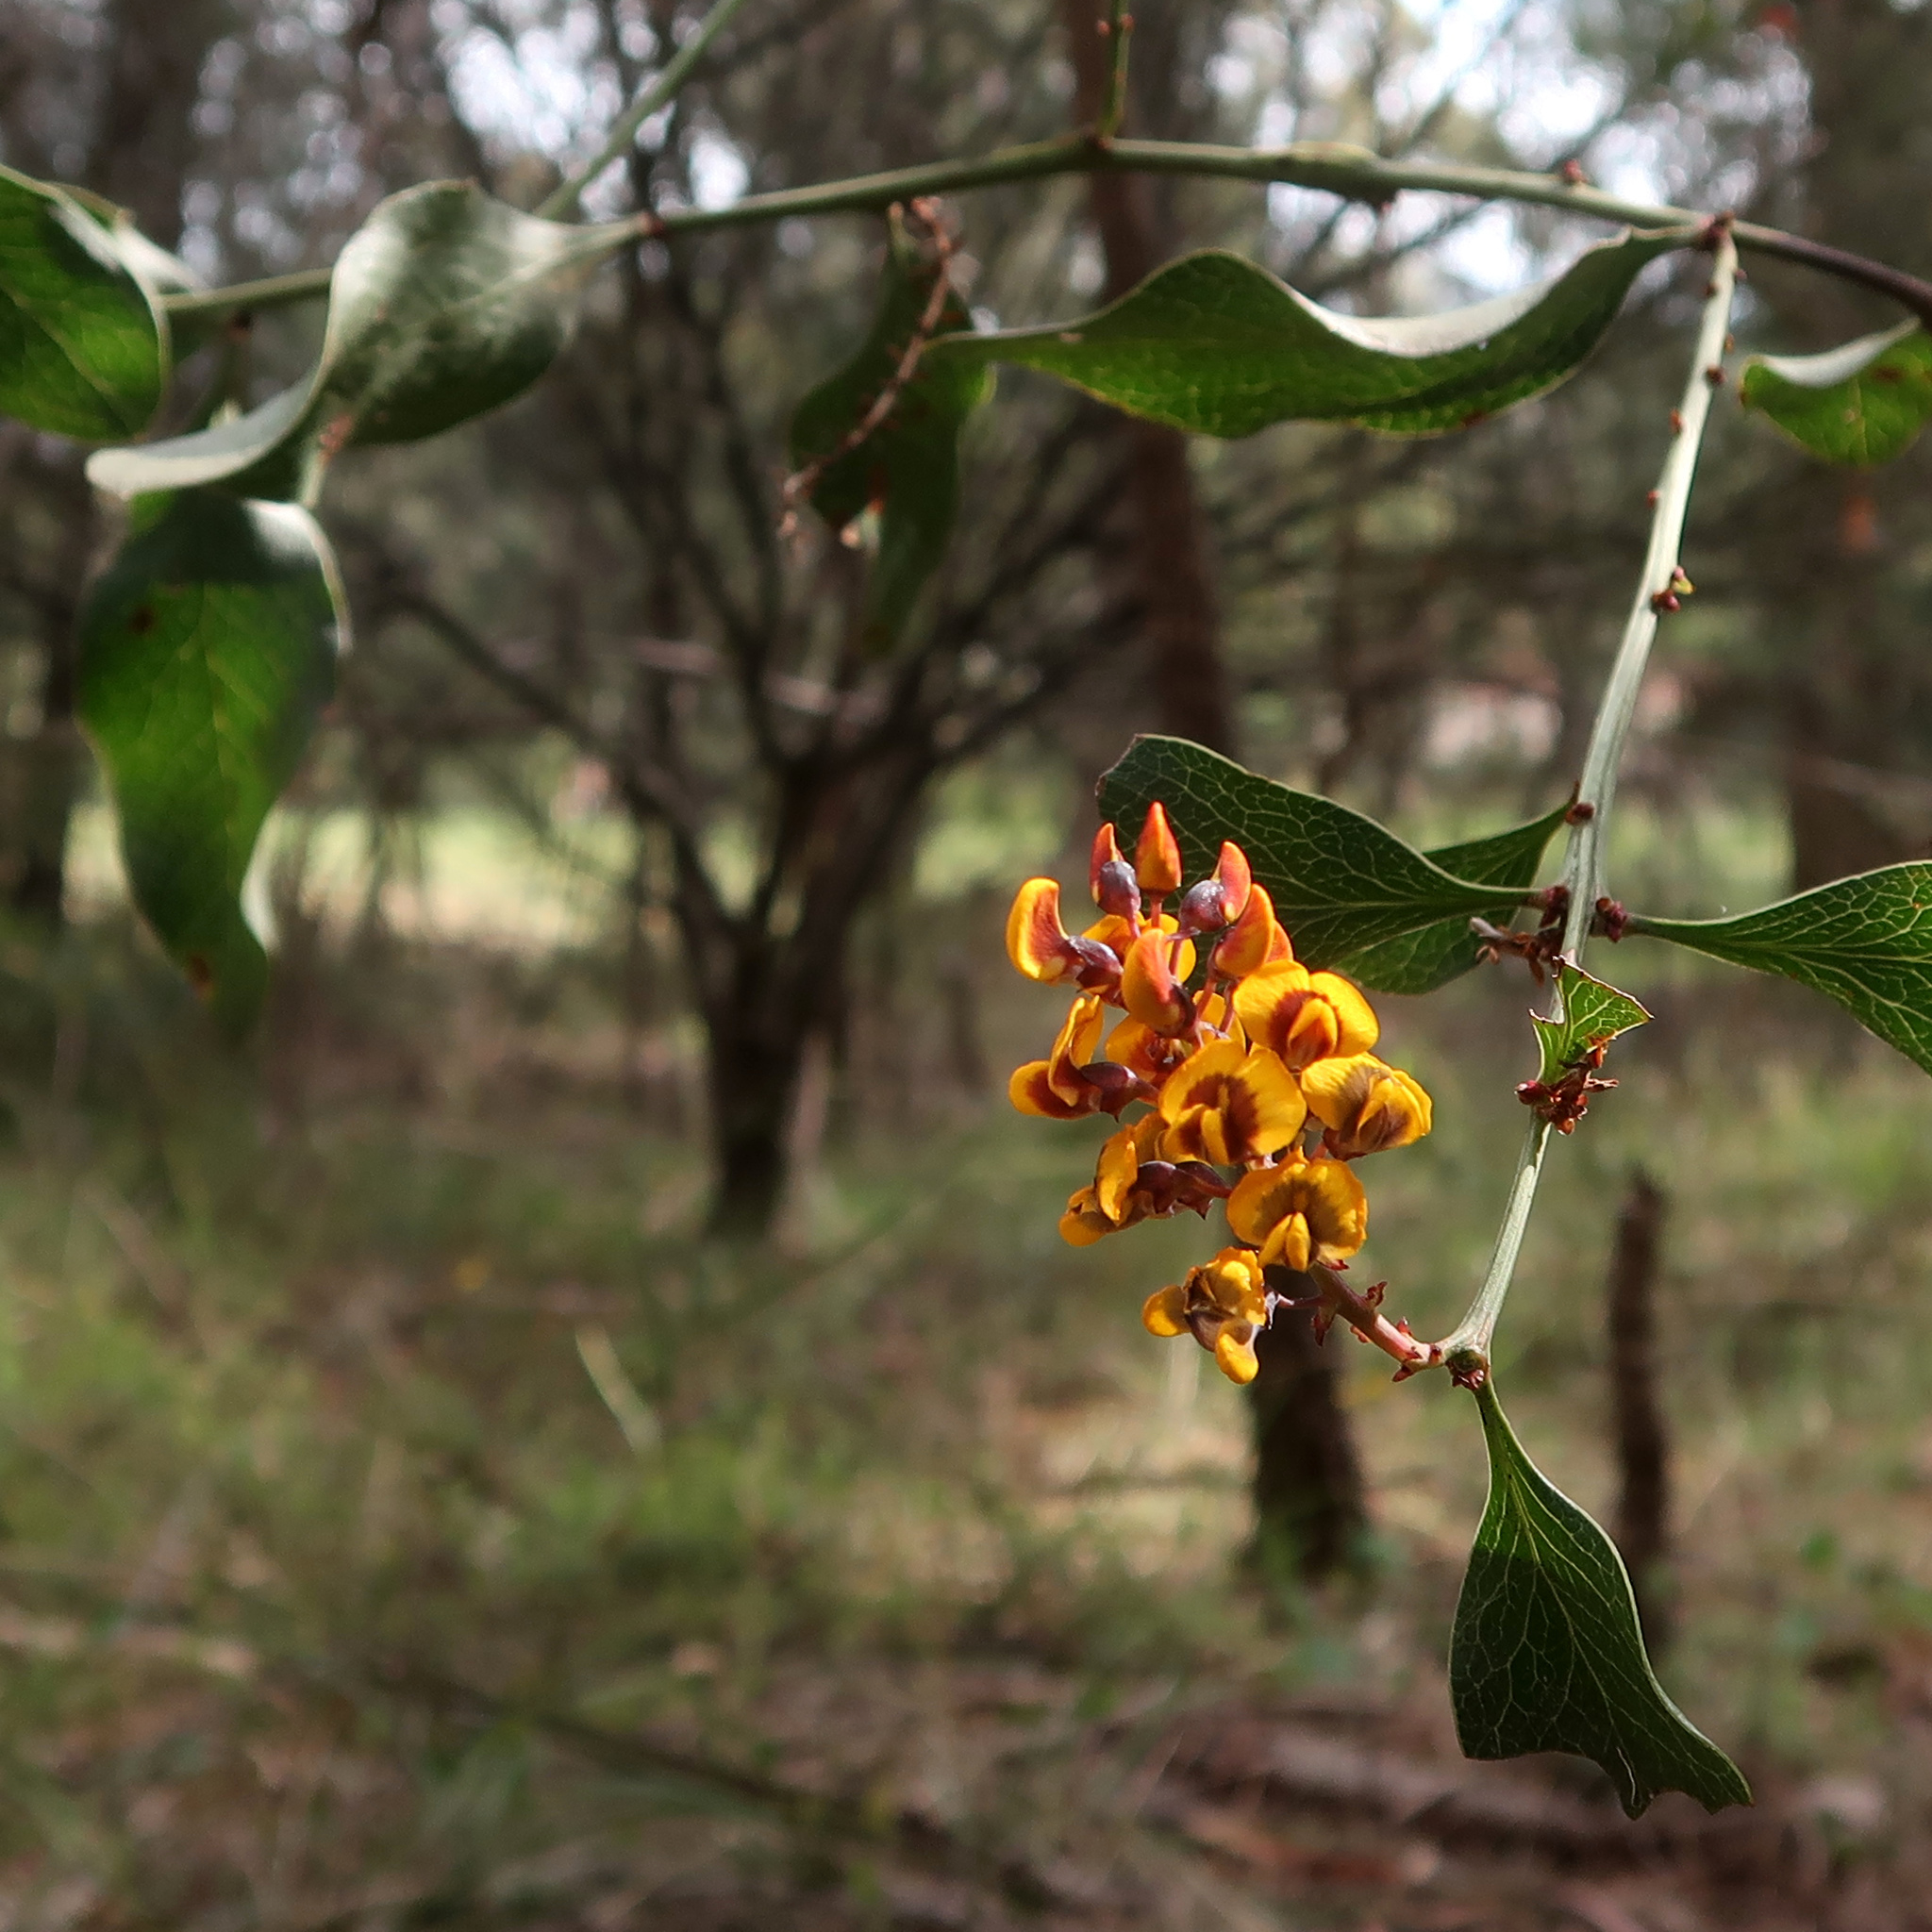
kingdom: Plantae
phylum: Tracheophyta
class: Magnoliopsida
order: Fabales
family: Fabaceae
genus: Daviesia
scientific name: Daviesia latifolia
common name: Hop bitter-pea
